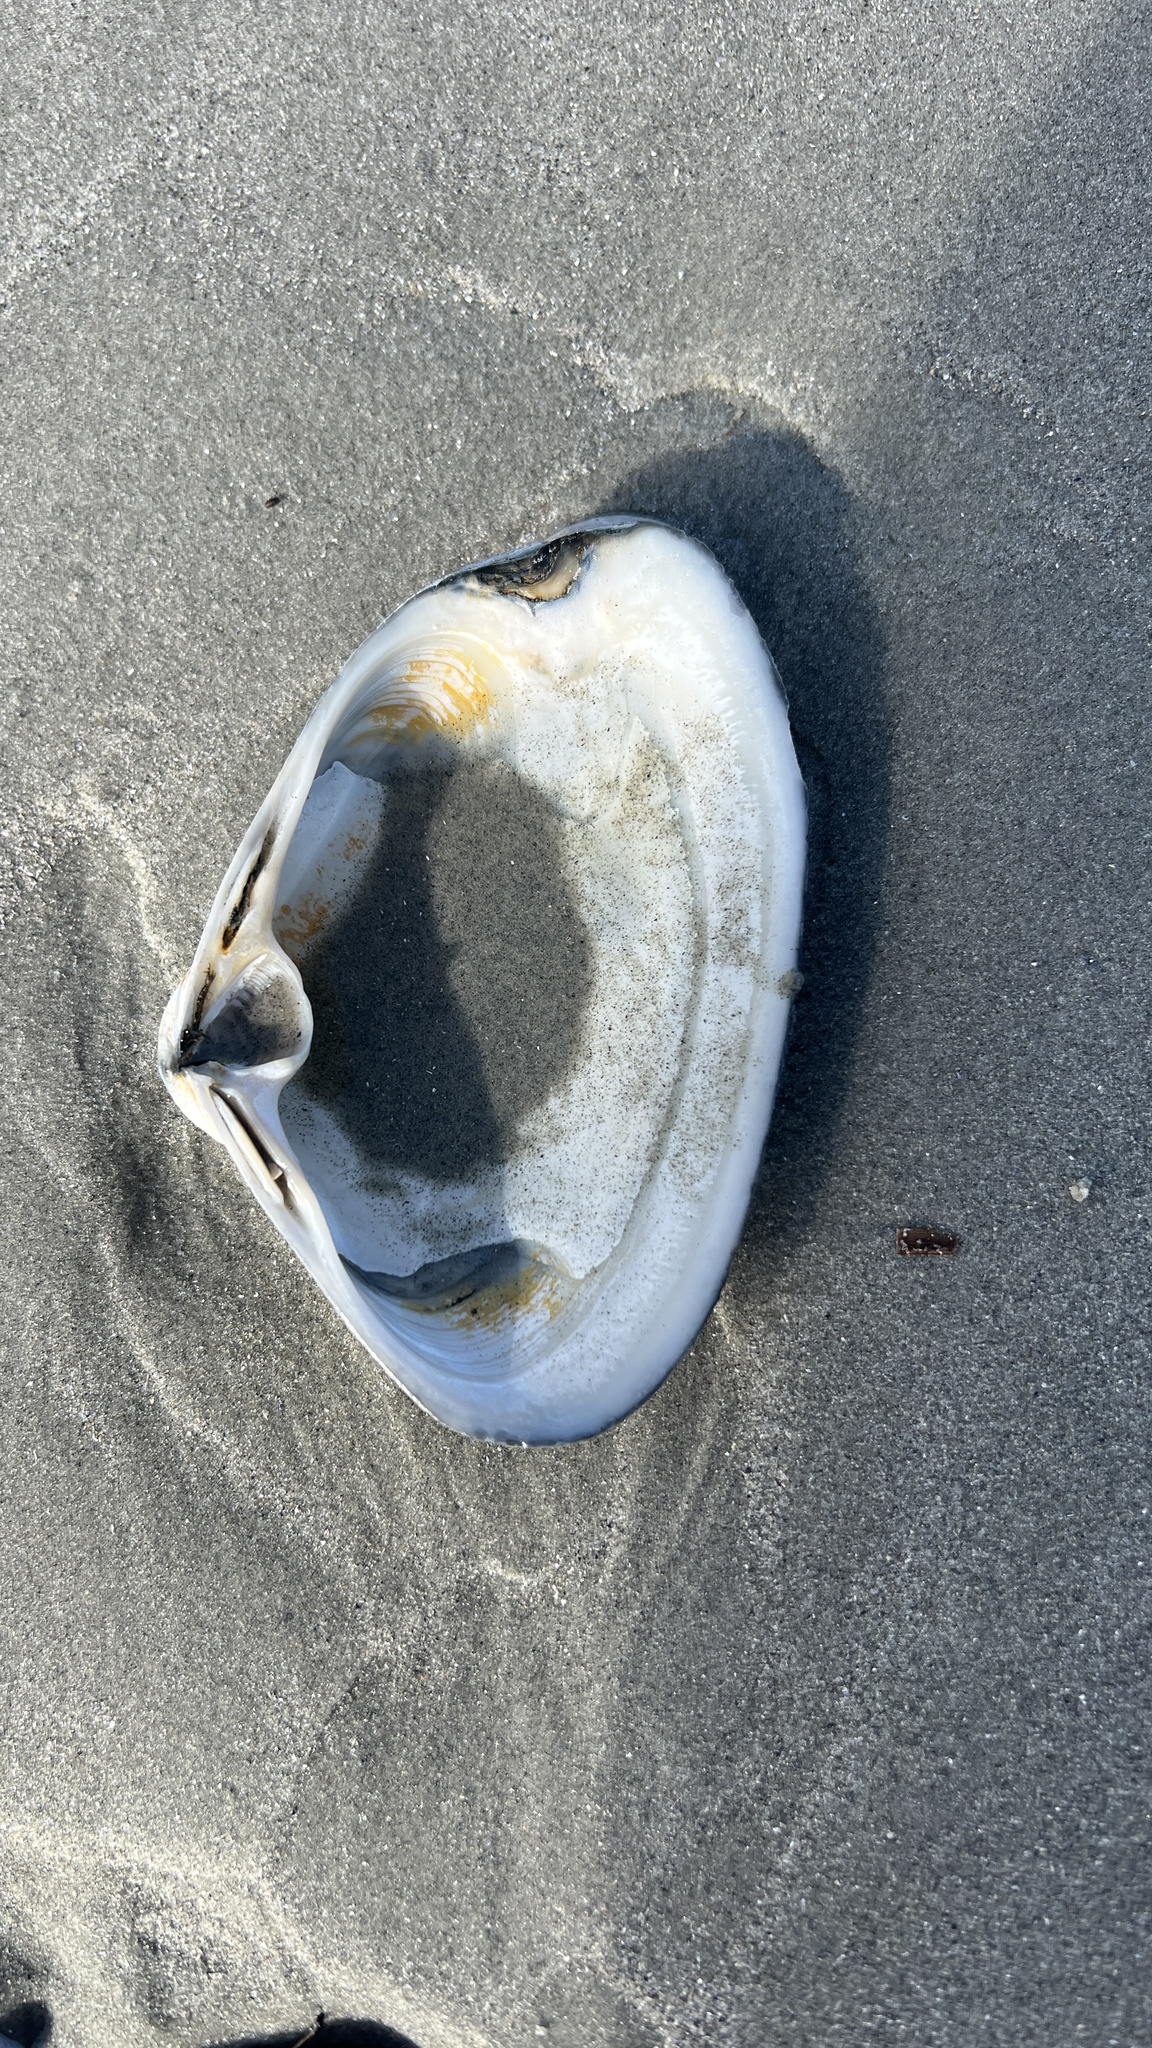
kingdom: Animalia
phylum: Mollusca
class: Bivalvia
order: Venerida
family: Mactridae
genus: Spisula
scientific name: Spisula solidissima
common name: Atlantic surf clam
